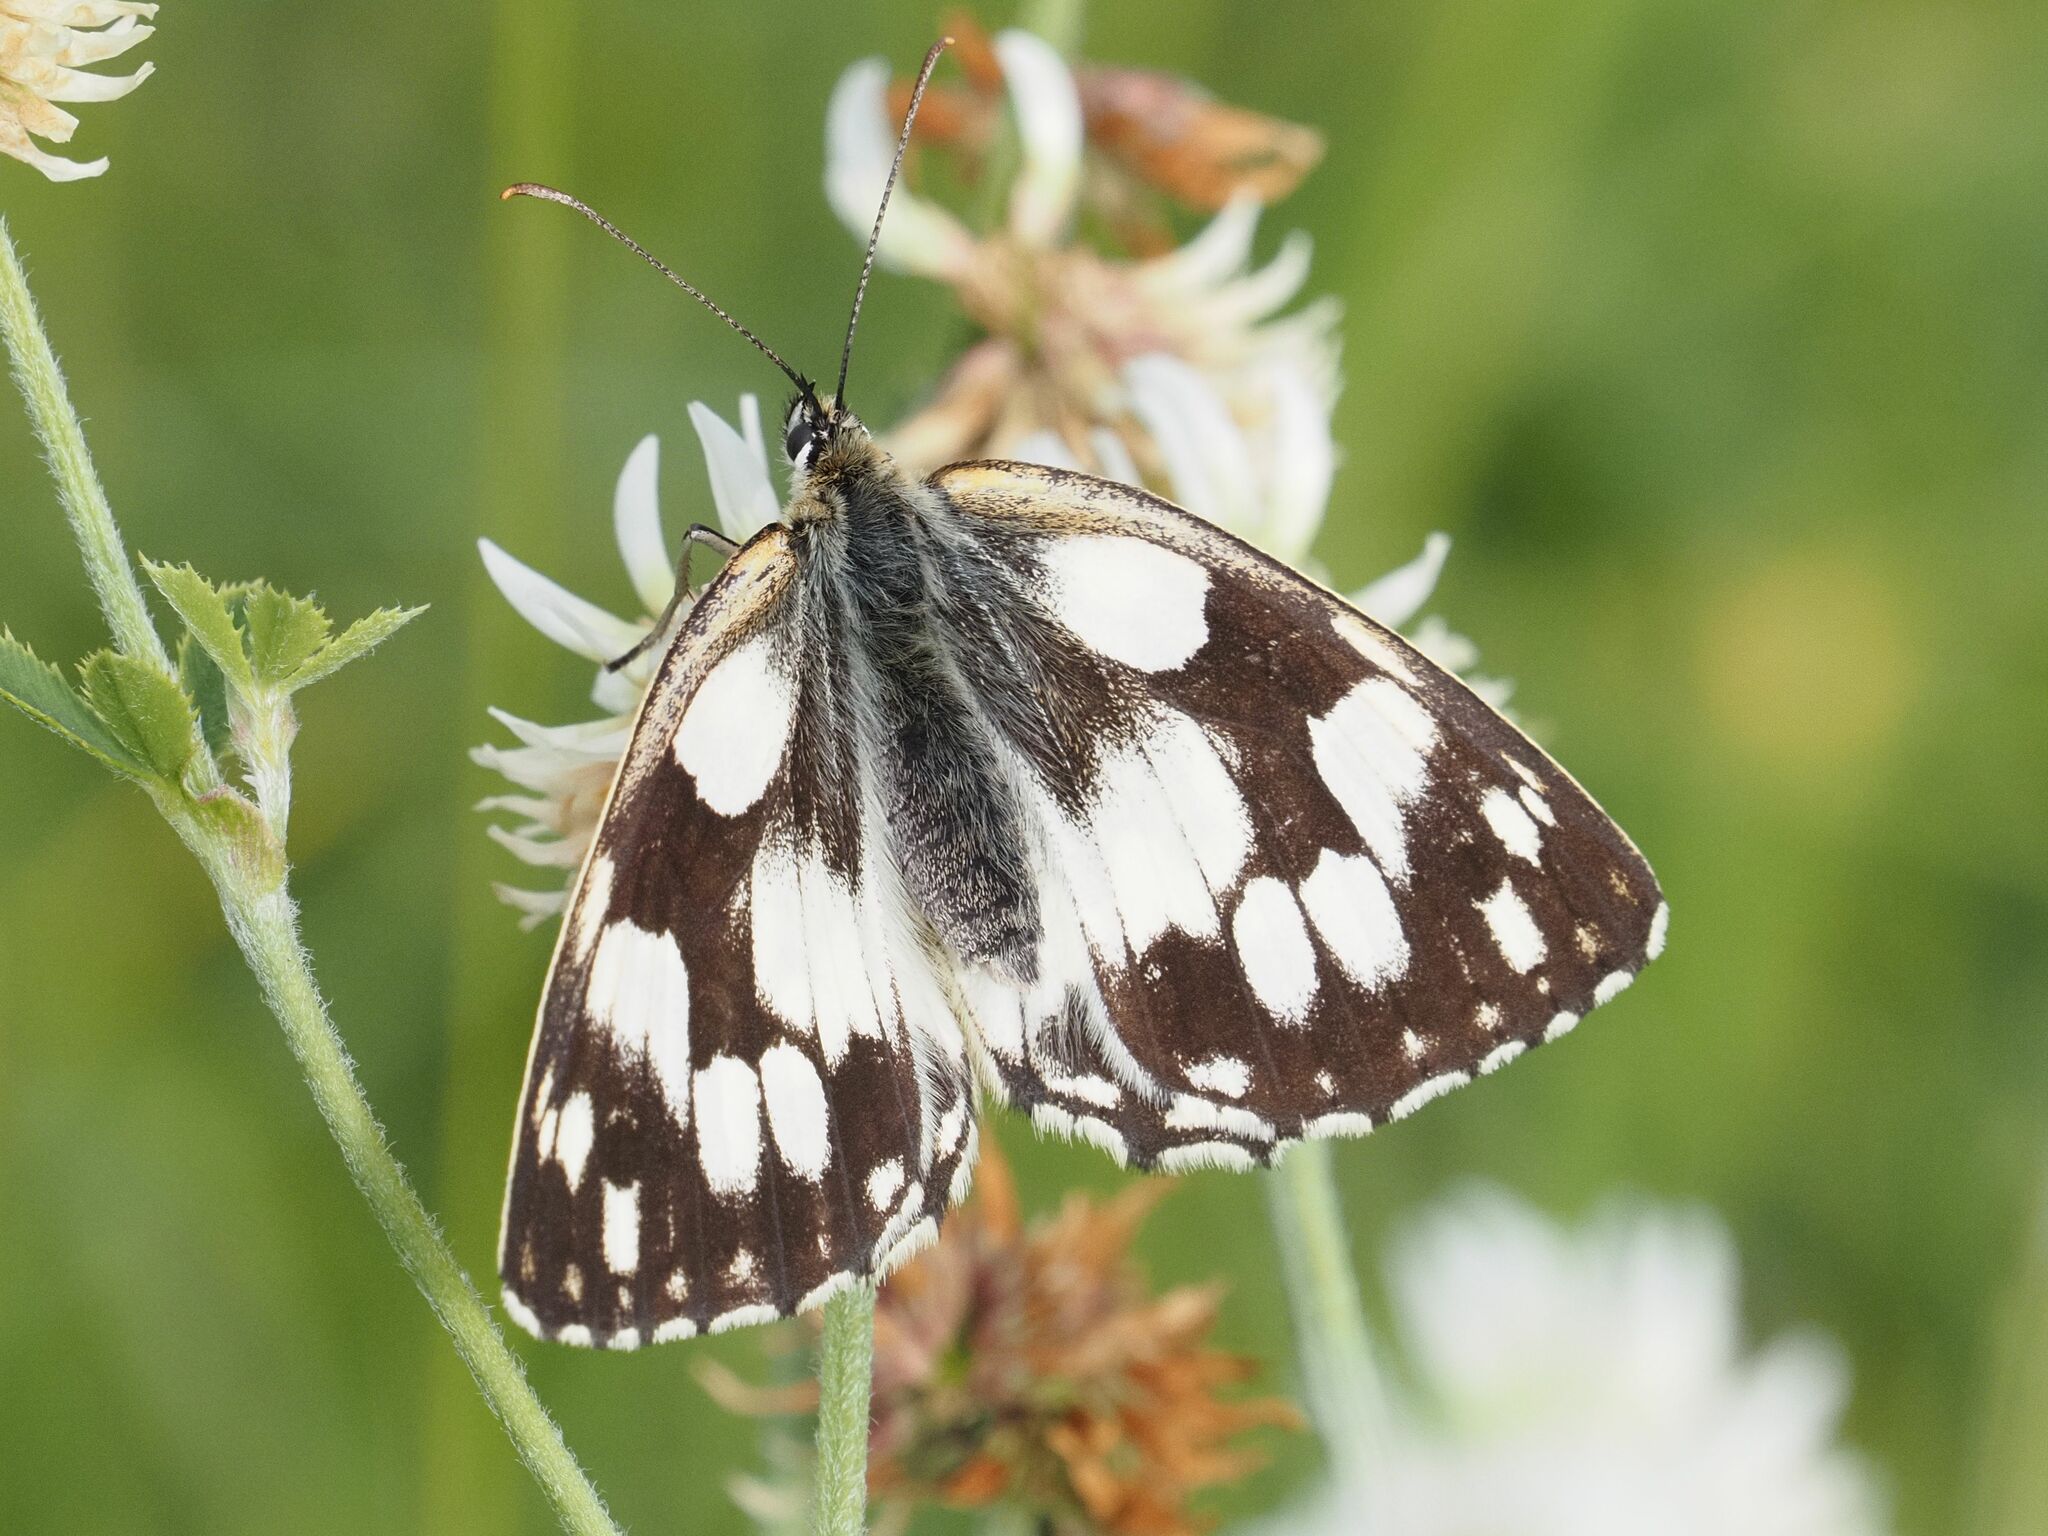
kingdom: Animalia
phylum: Arthropoda
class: Insecta
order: Lepidoptera
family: Nymphalidae
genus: Melanargia
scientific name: Melanargia galathea
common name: Marbled white
